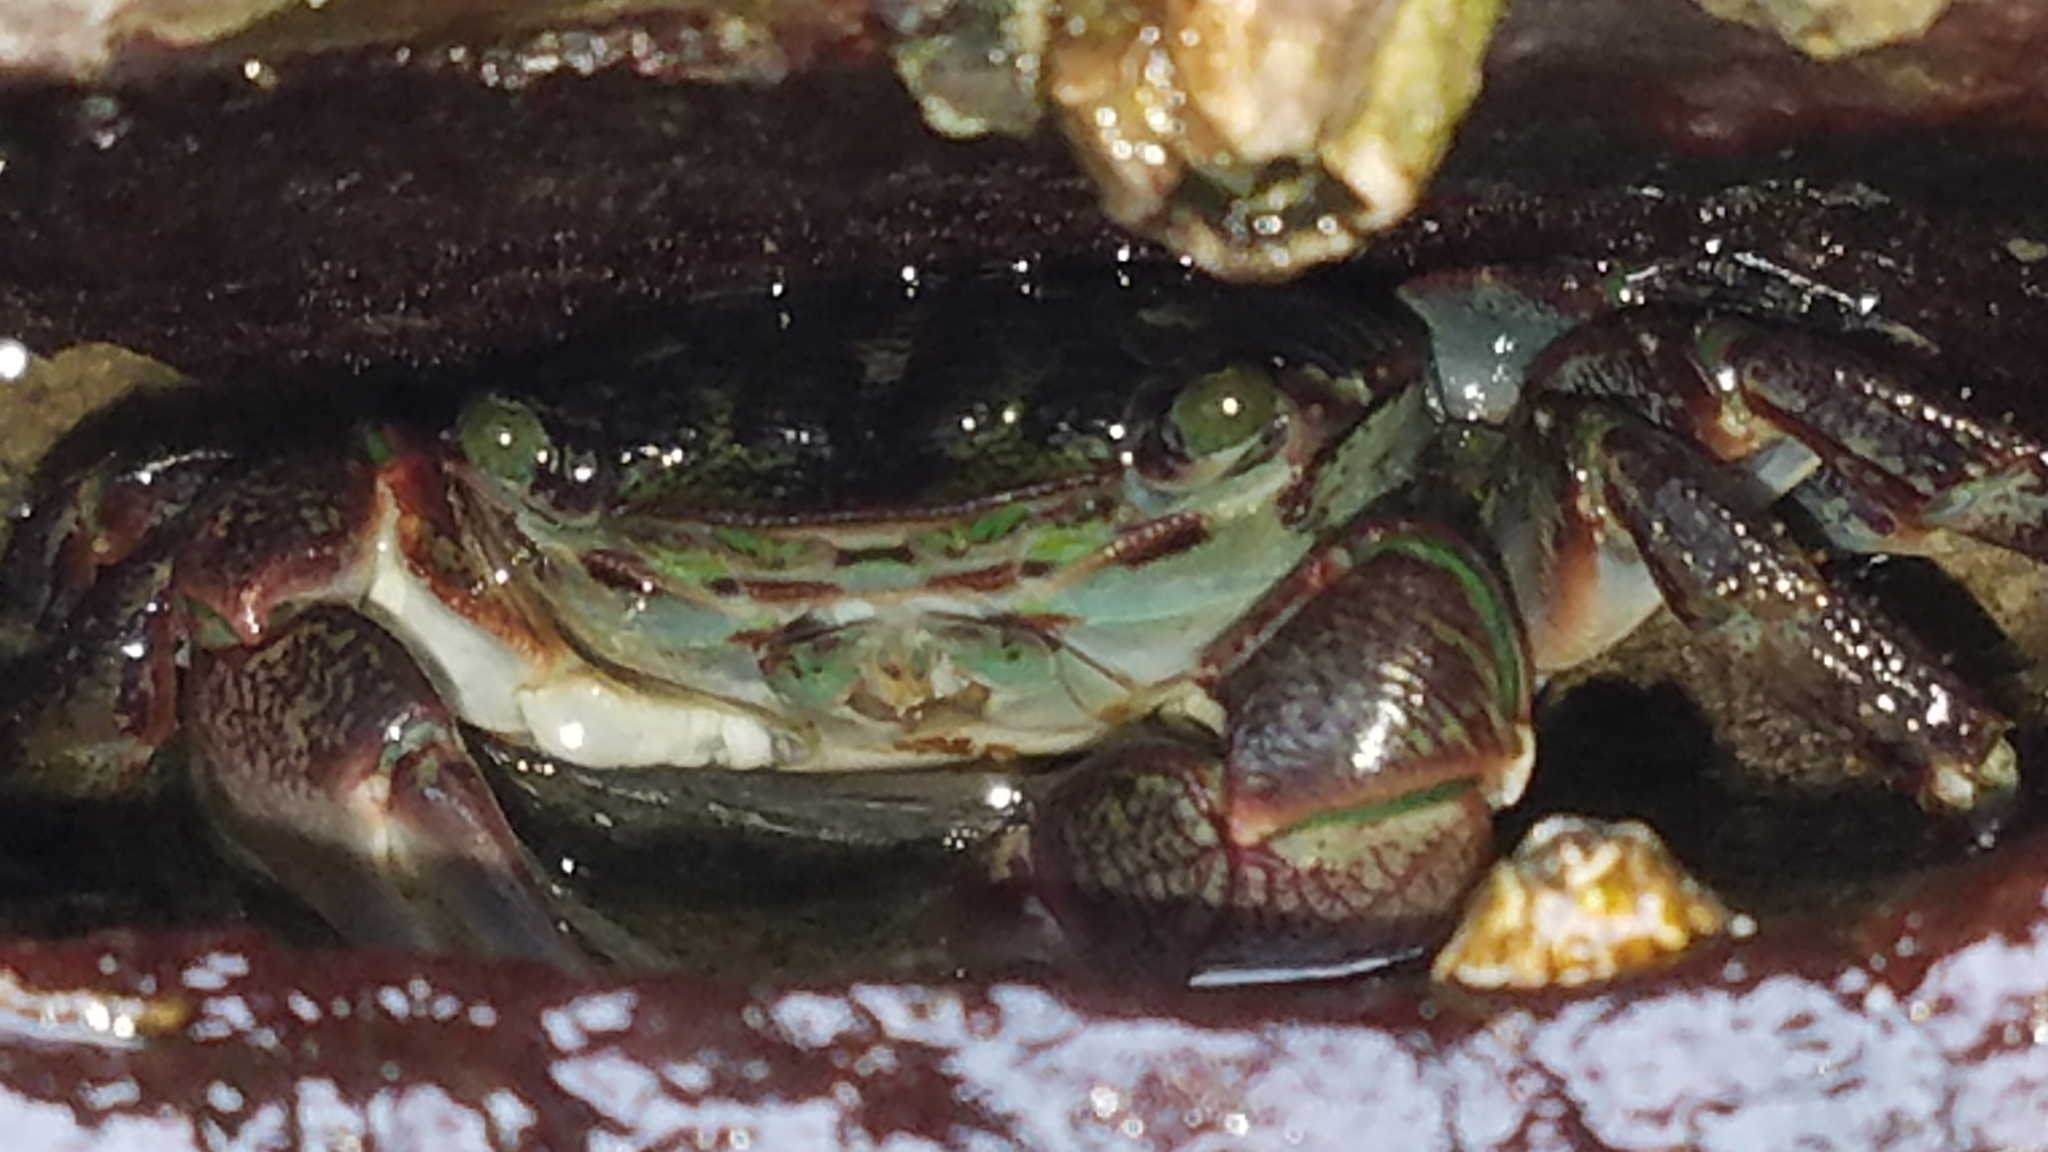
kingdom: Animalia
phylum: Arthropoda
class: Malacostraca
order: Decapoda
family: Grapsidae
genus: Pachygrapsus
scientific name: Pachygrapsus crassipes
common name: Striped shore crab
